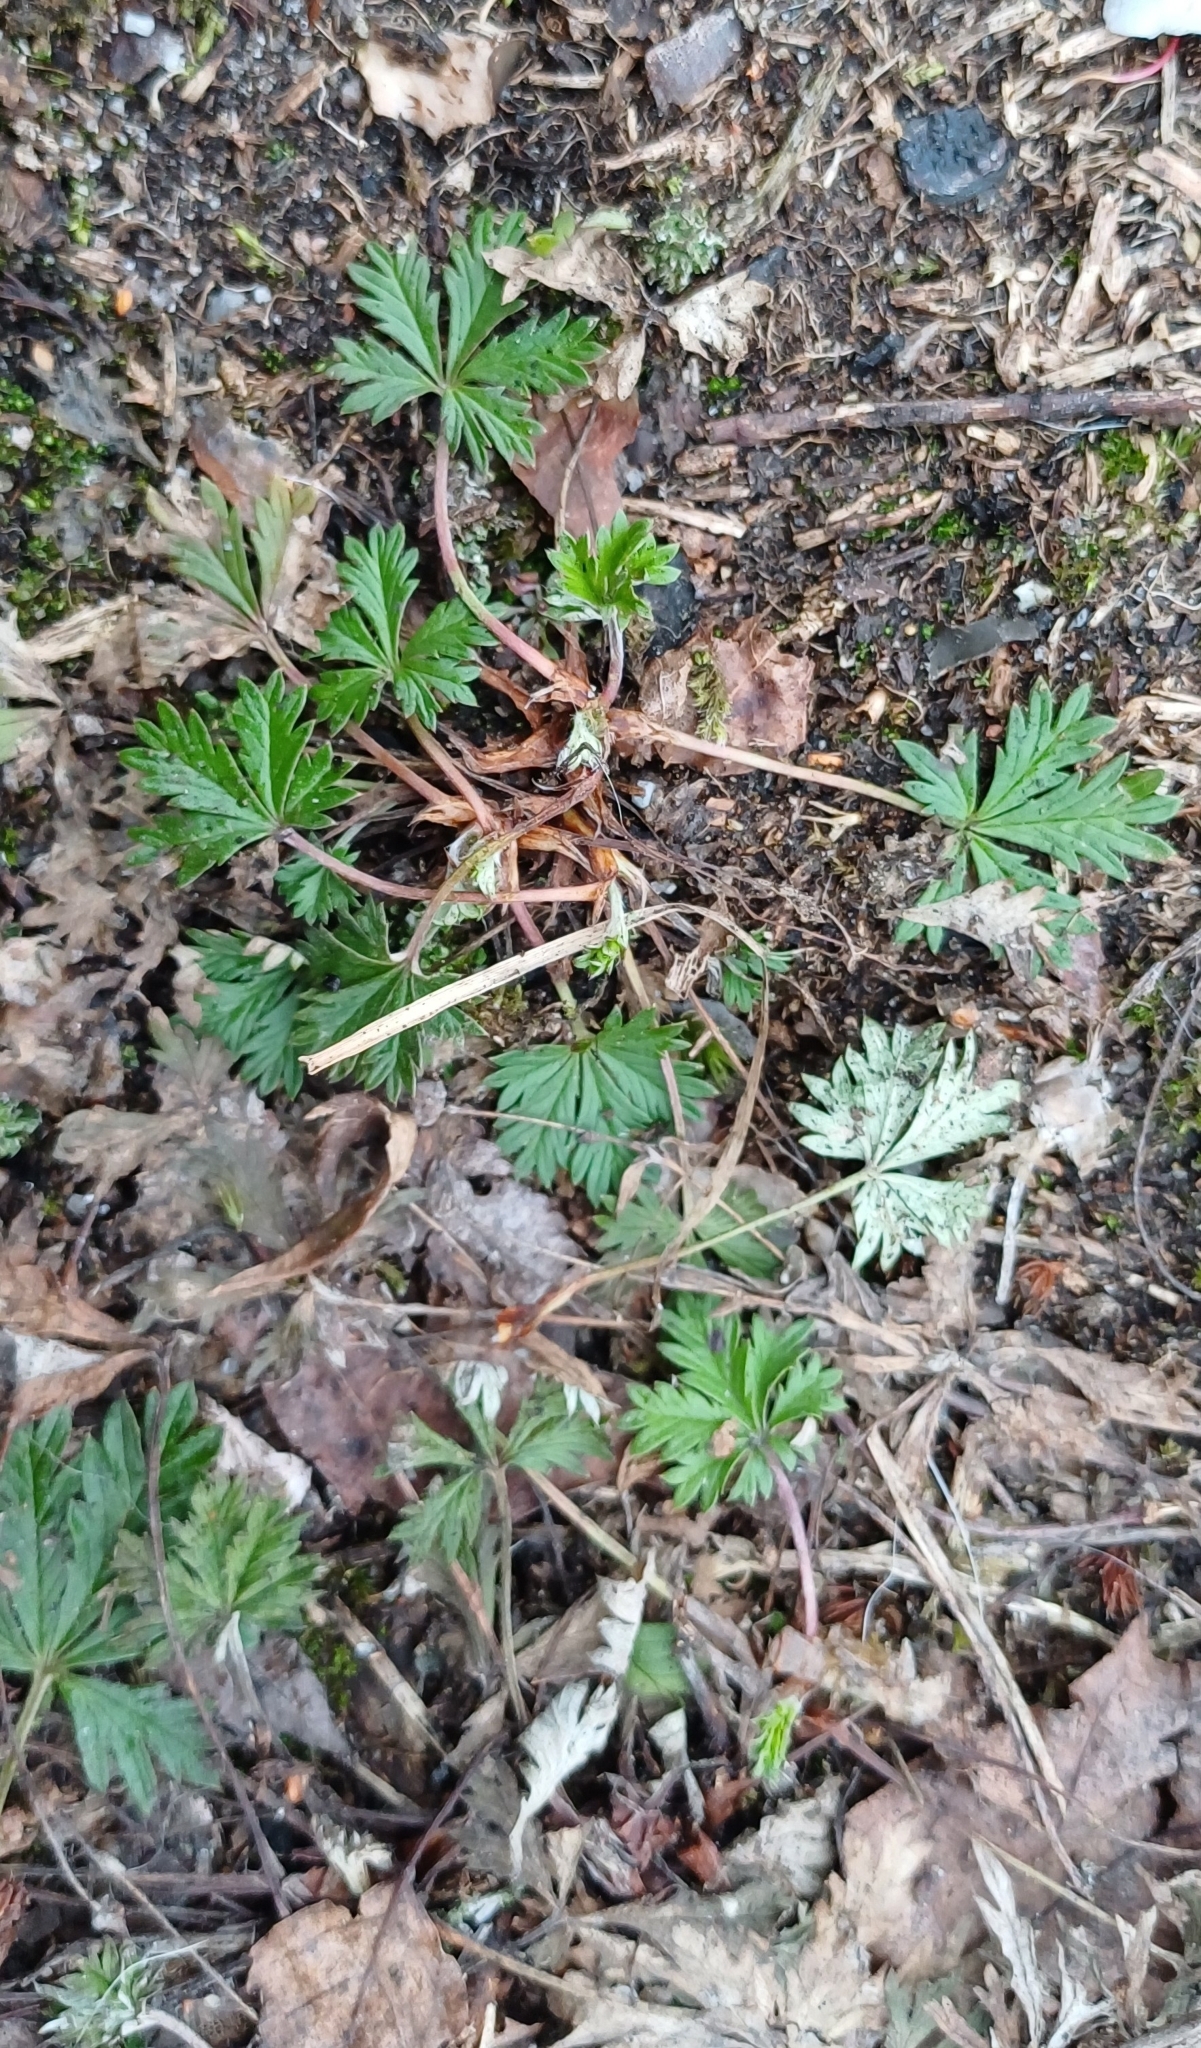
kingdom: Plantae
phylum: Tracheophyta
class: Magnoliopsida
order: Rosales
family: Rosaceae
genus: Potentilla
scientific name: Potentilla argentea
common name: Hoary cinquefoil
